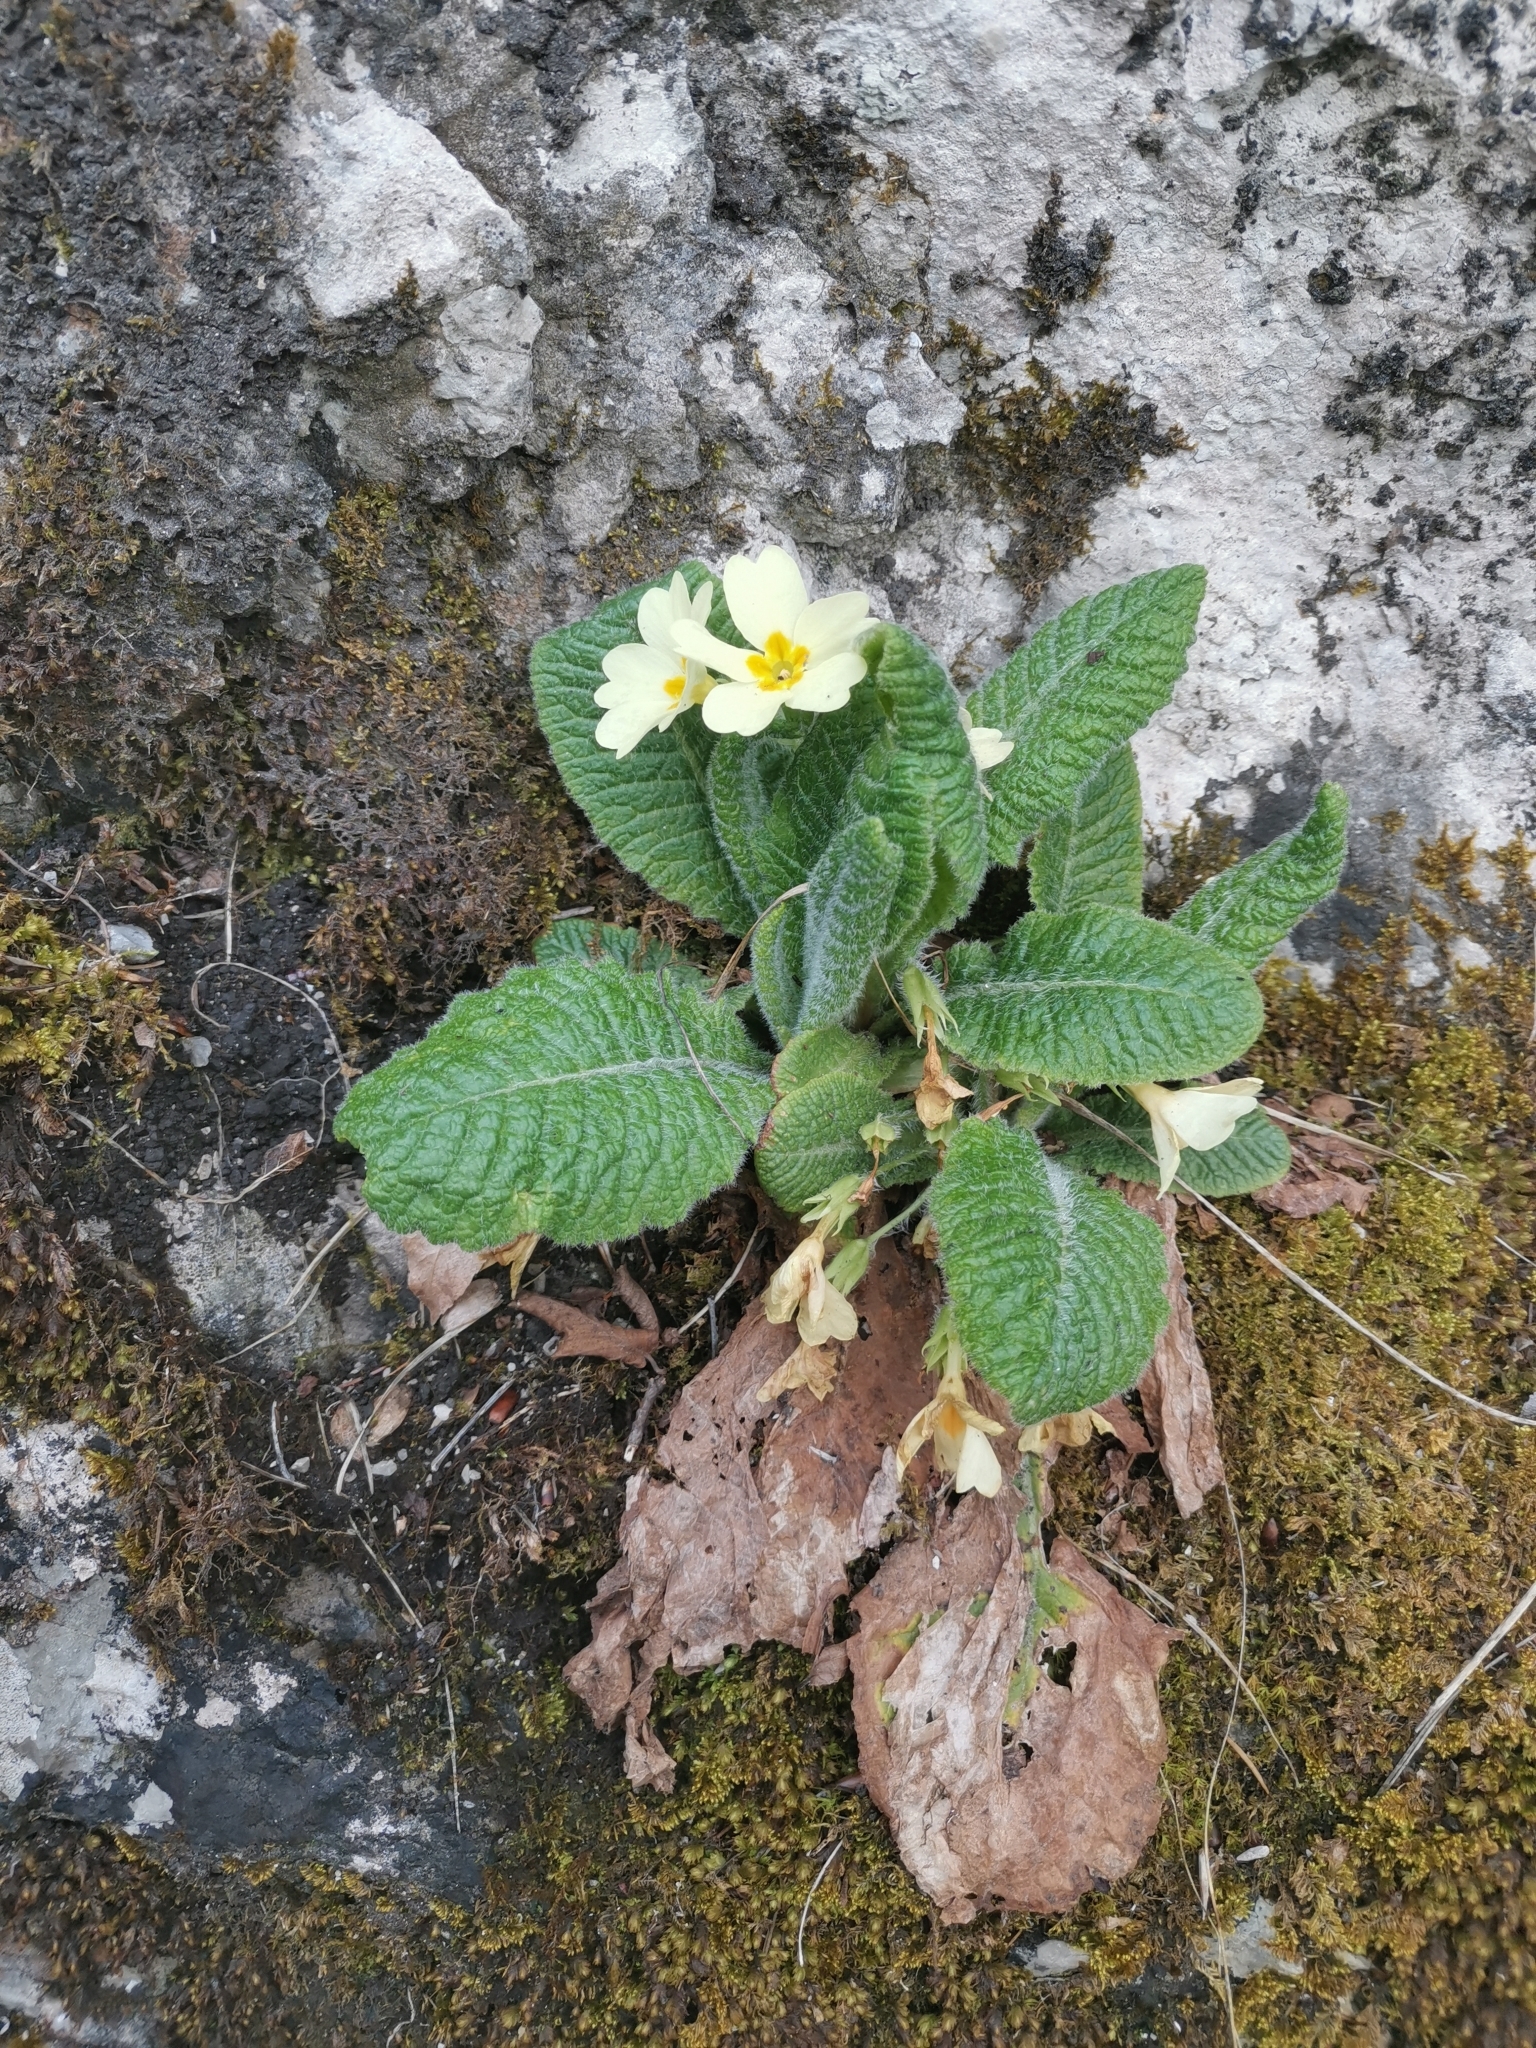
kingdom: Plantae
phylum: Tracheophyta
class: Magnoliopsida
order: Ericales
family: Primulaceae
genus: Primula
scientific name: Primula vulgaris
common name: Primrose
